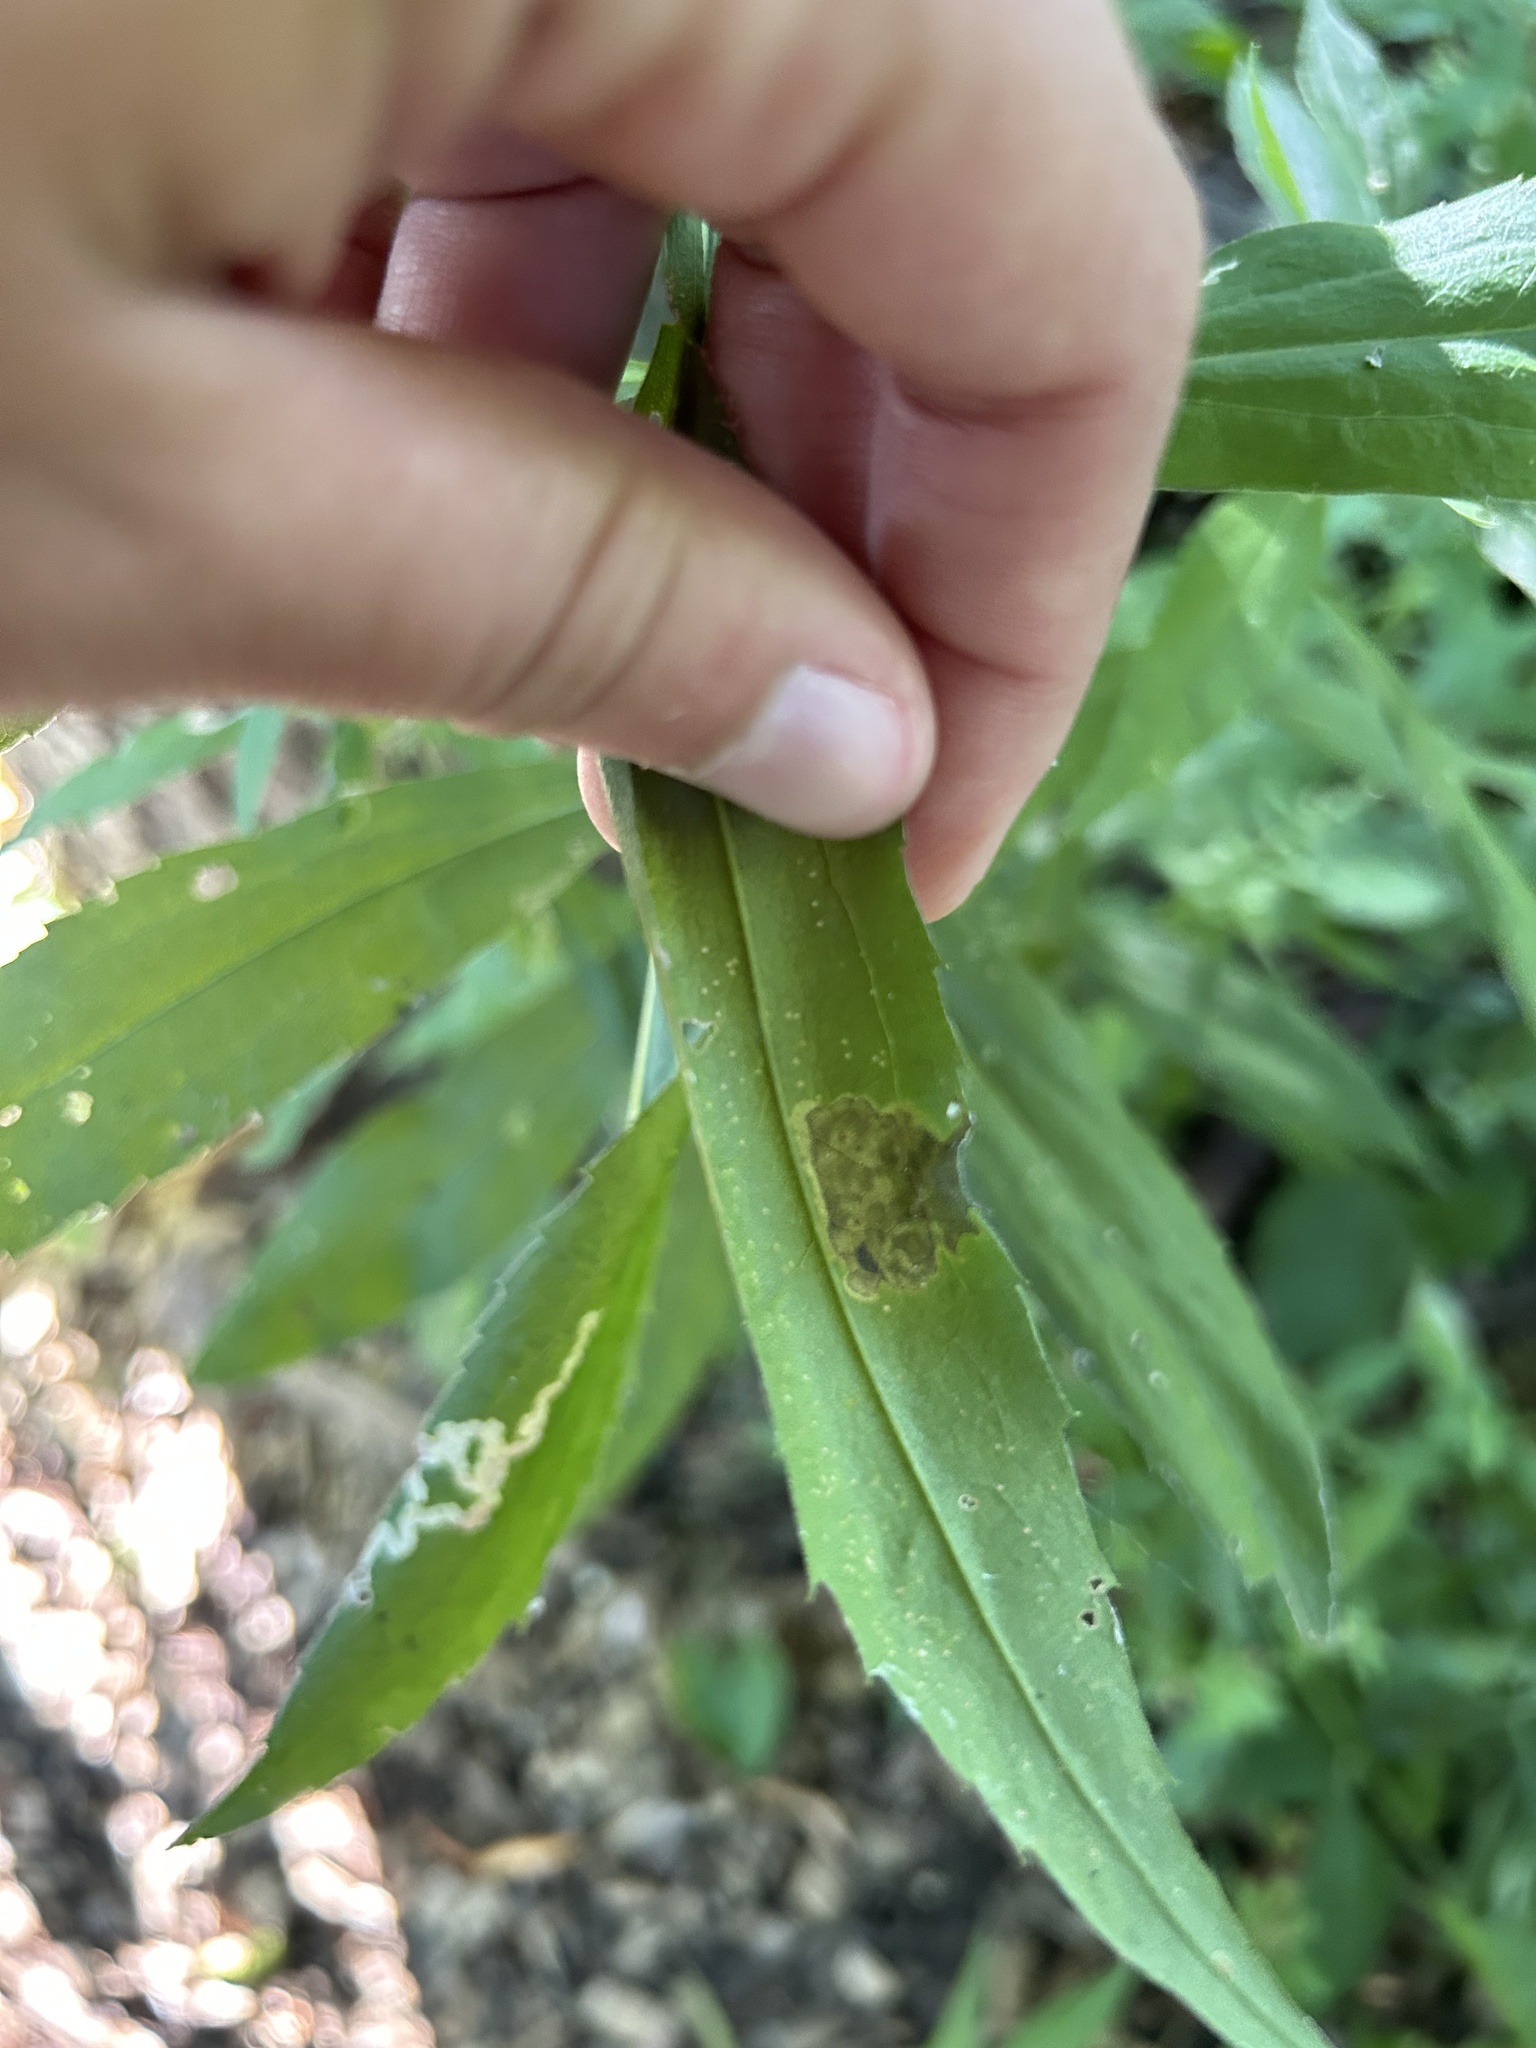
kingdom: Animalia
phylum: Arthropoda
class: Insecta
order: Diptera
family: Agromyzidae
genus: Nemorimyza
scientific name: Nemorimyza posticata
